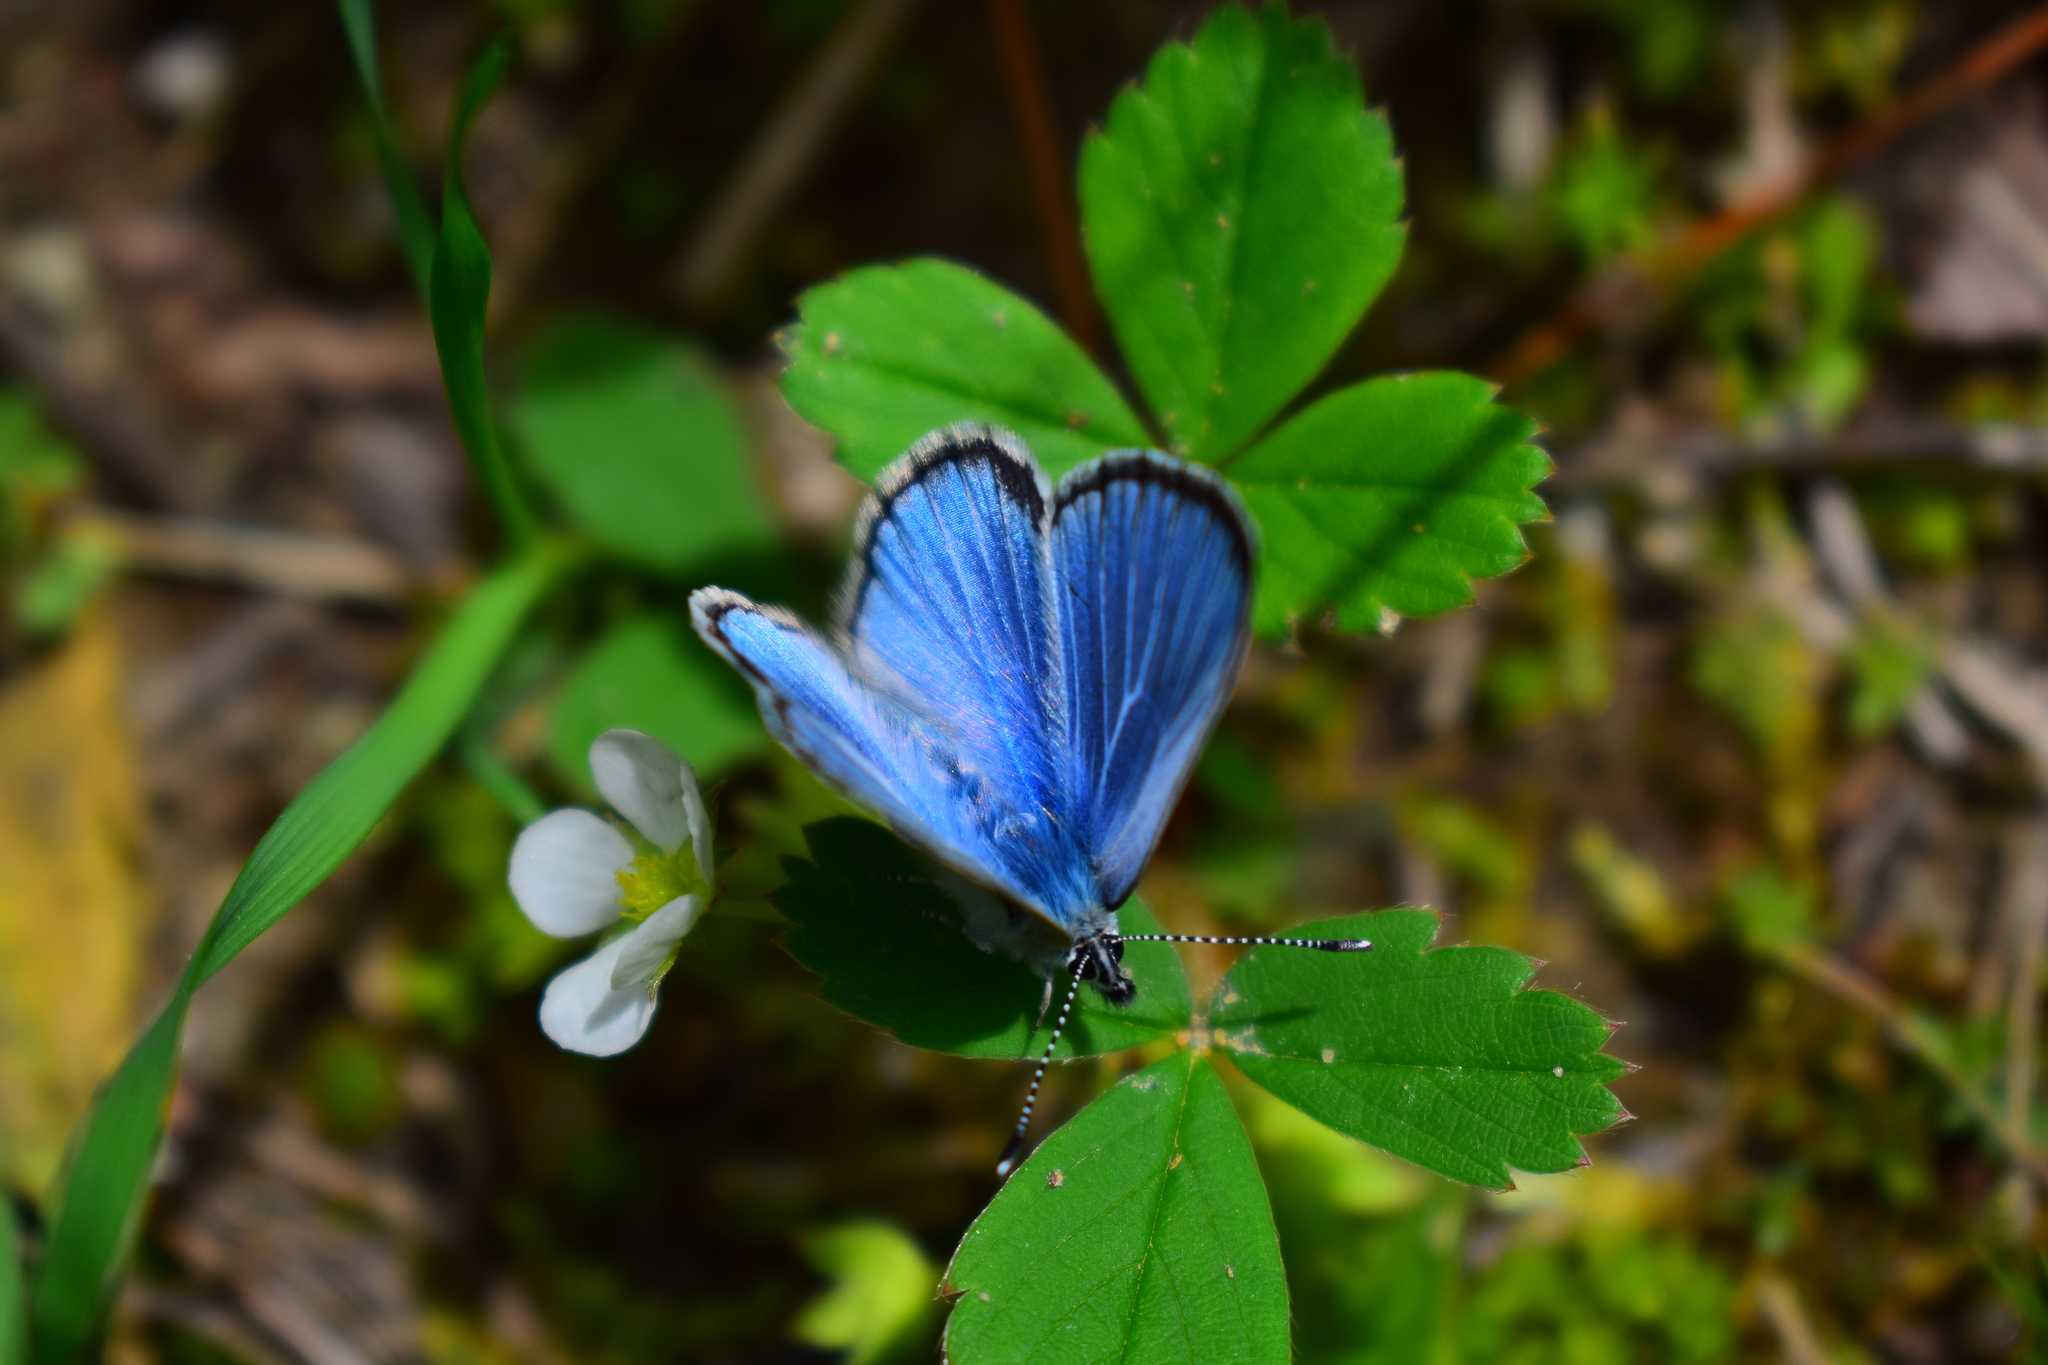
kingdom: Animalia
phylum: Arthropoda
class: Insecta
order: Lepidoptera
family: Lycaenidae
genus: Glaucopsyche
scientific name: Glaucopsyche lygdamus
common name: Silvery blue
